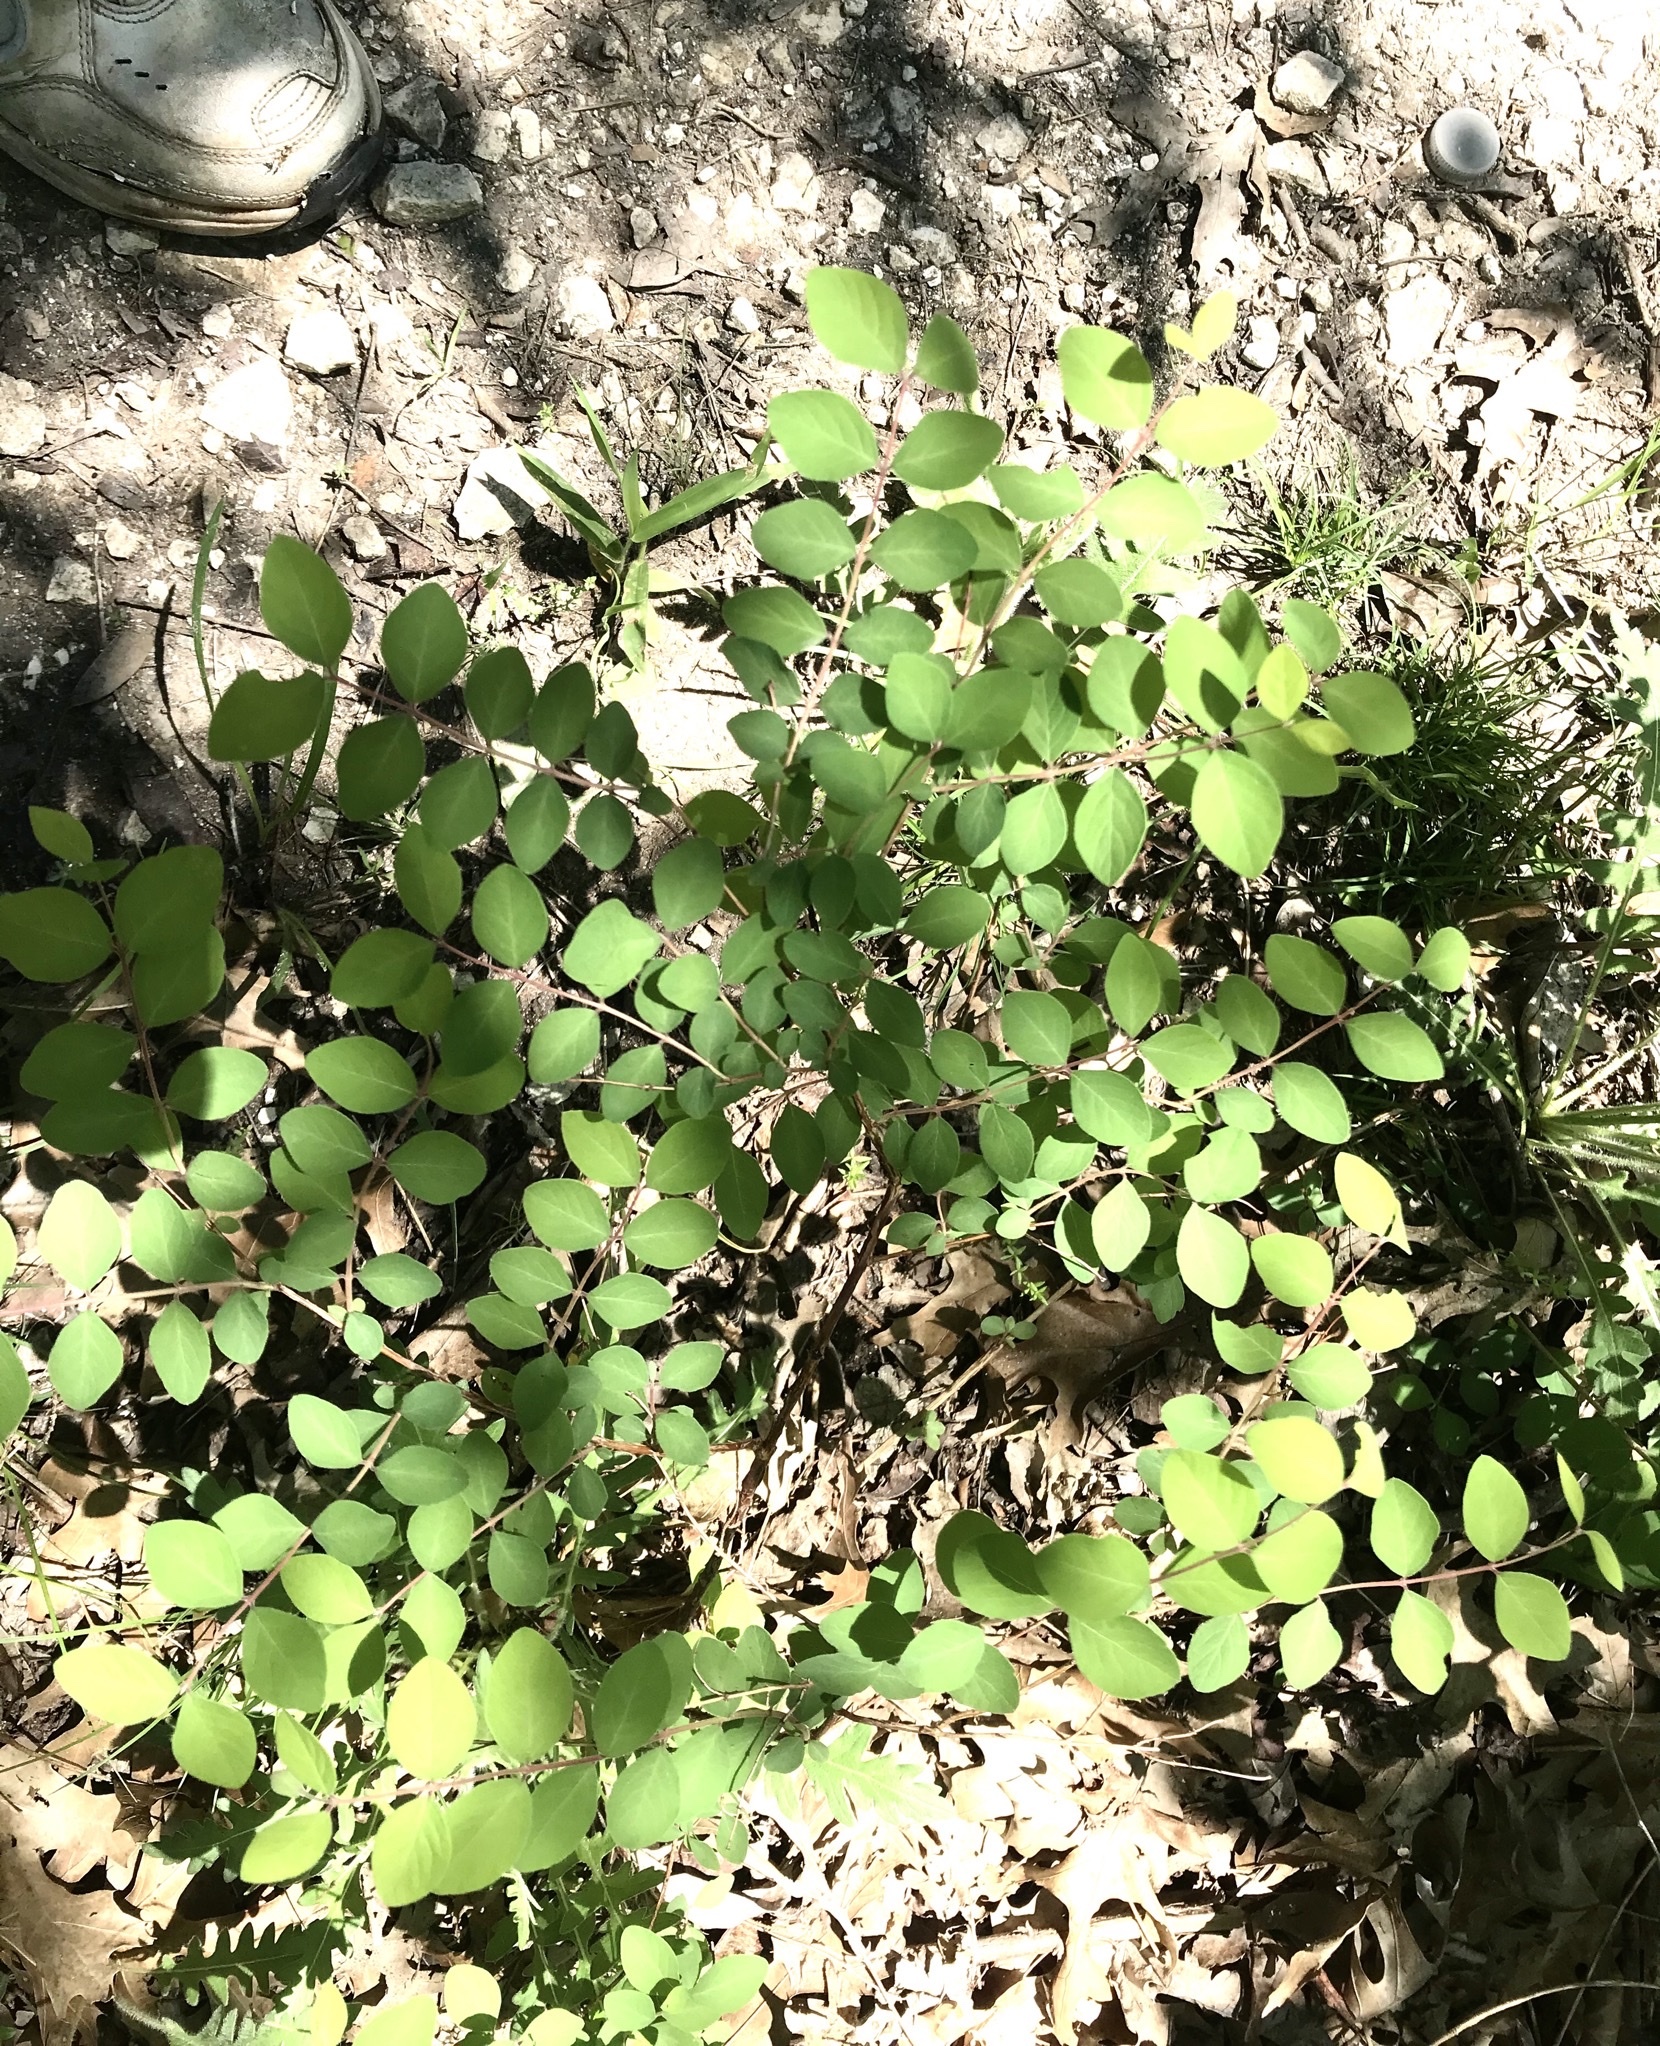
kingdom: Plantae
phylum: Tracheophyta
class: Magnoliopsida
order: Dipsacales
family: Caprifoliaceae
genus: Symphoricarpos
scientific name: Symphoricarpos orbiculatus
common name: Coralberry
